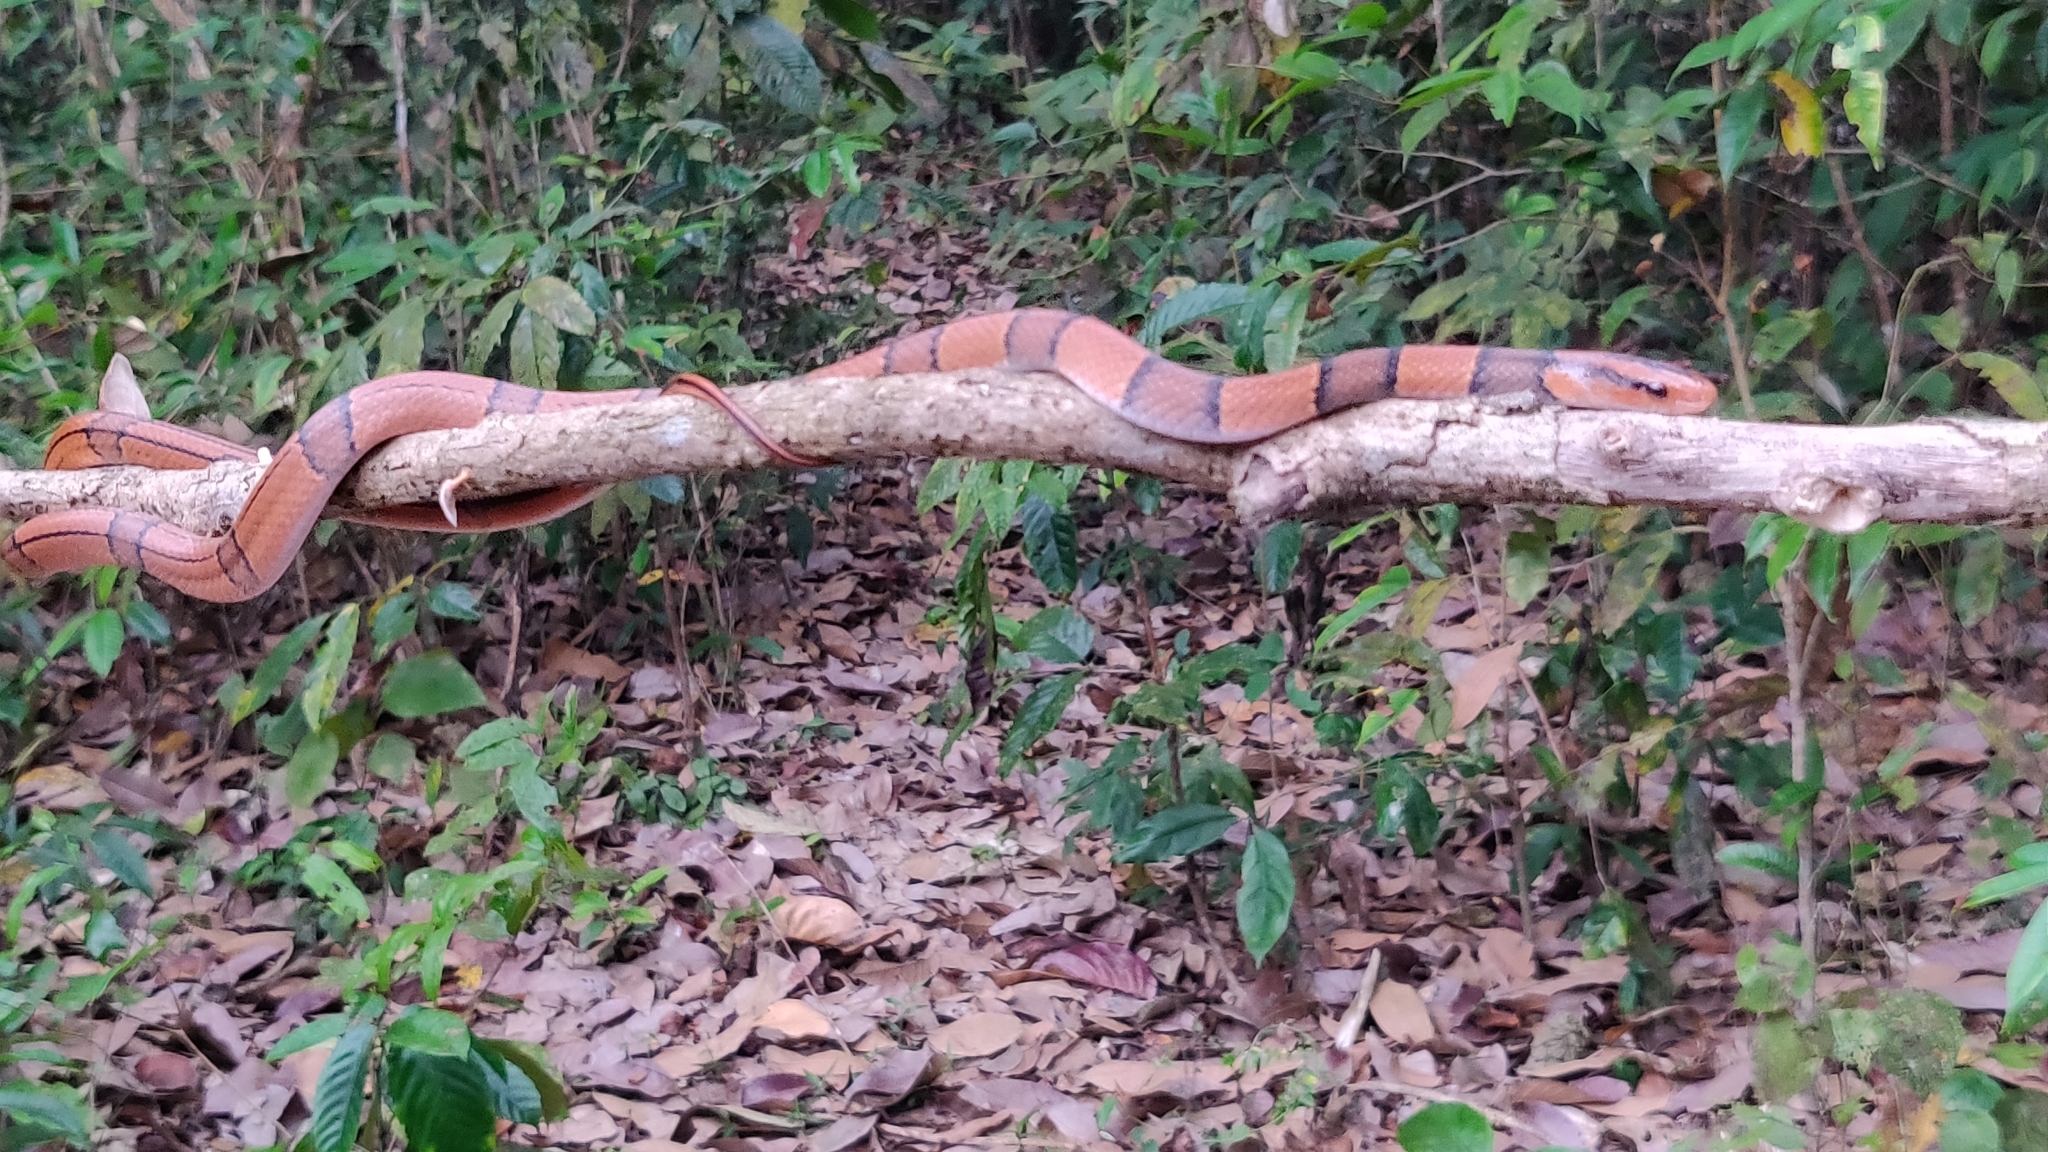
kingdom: Animalia
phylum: Chordata
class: Squamata
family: Colubridae
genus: Oreocryptophis
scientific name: Oreocryptophis porphyraceus
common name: Black-banded trinket snake
